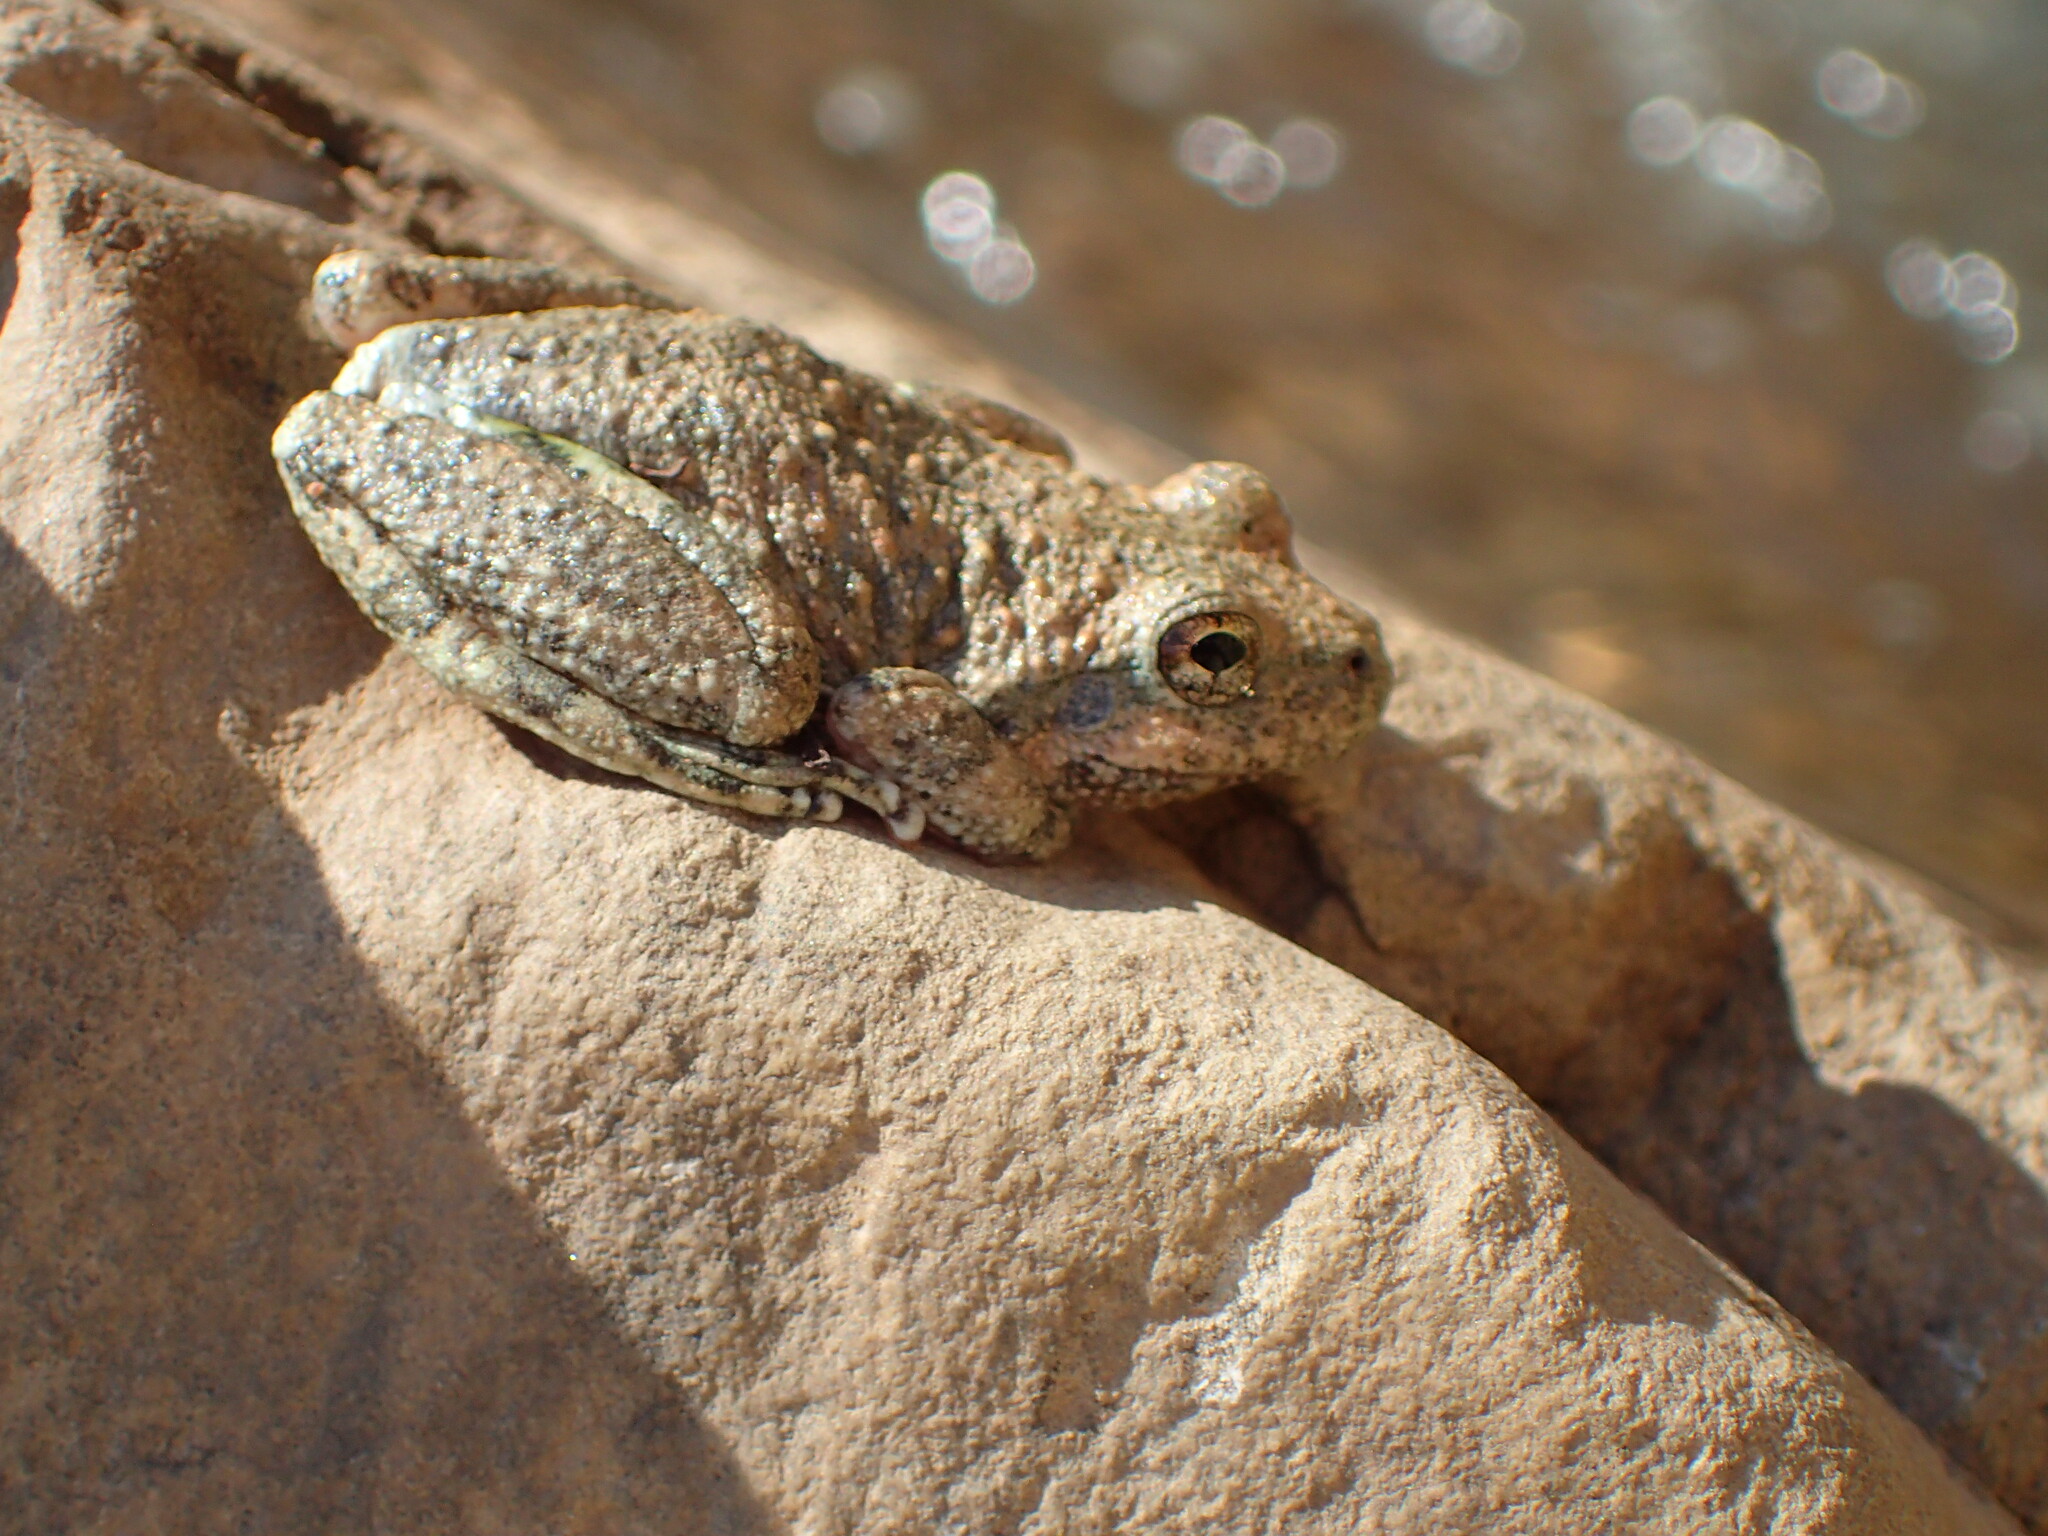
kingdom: Animalia
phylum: Chordata
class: Amphibia
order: Anura
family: Hylidae
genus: Pseudacris
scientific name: Pseudacris cadaverina
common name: California chorus frog
